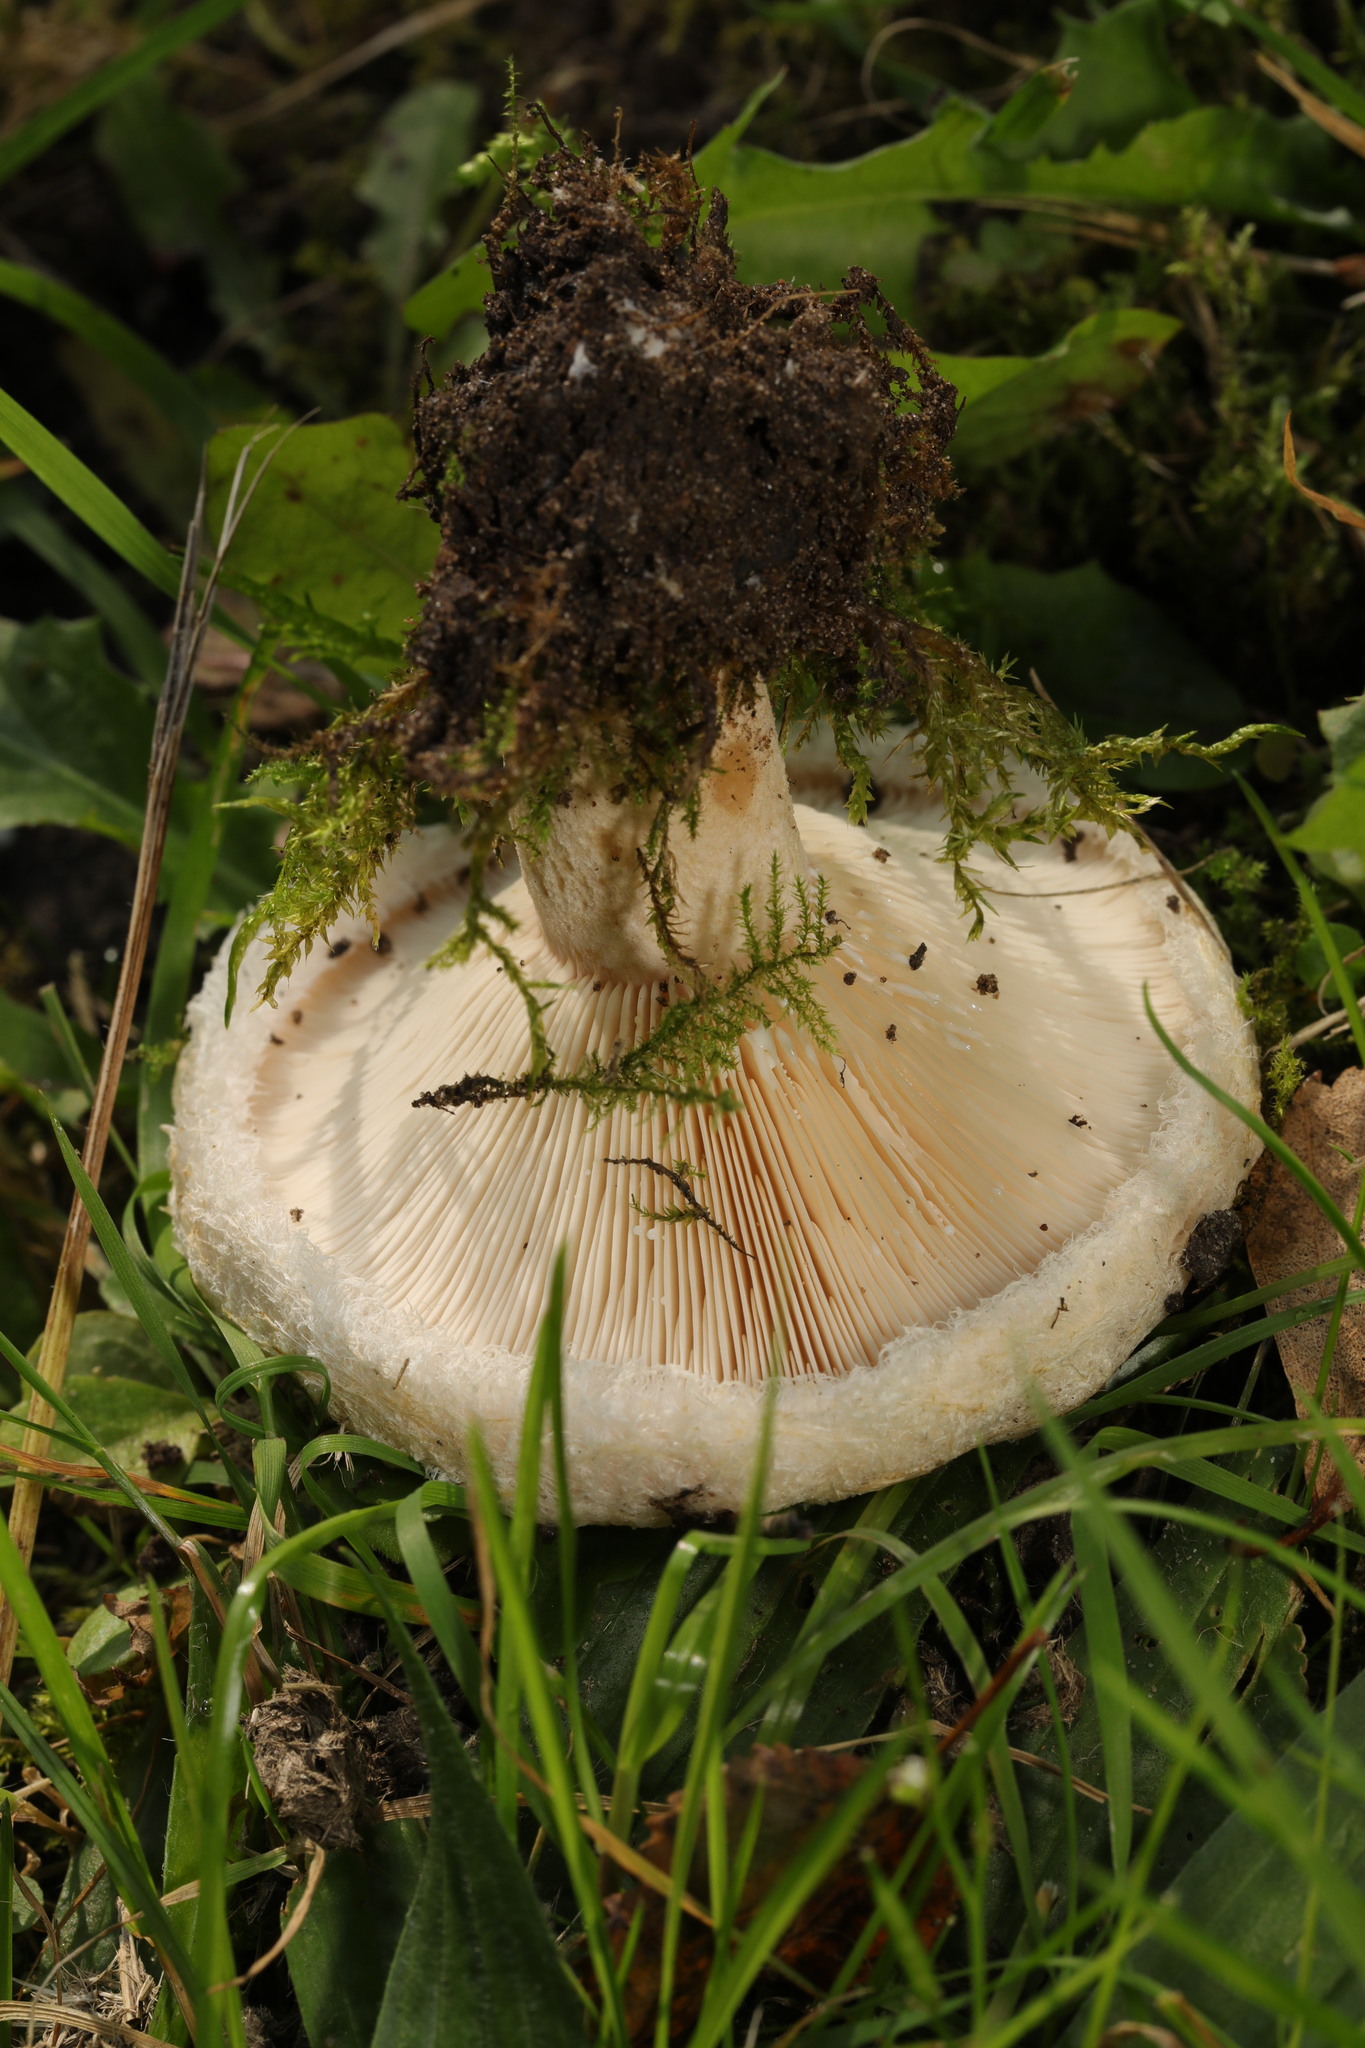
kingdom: Fungi
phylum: Basidiomycota
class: Agaricomycetes
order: Russulales
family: Russulaceae
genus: Lactarius
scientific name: Lactarius pubescens
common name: Bearded milkcap
